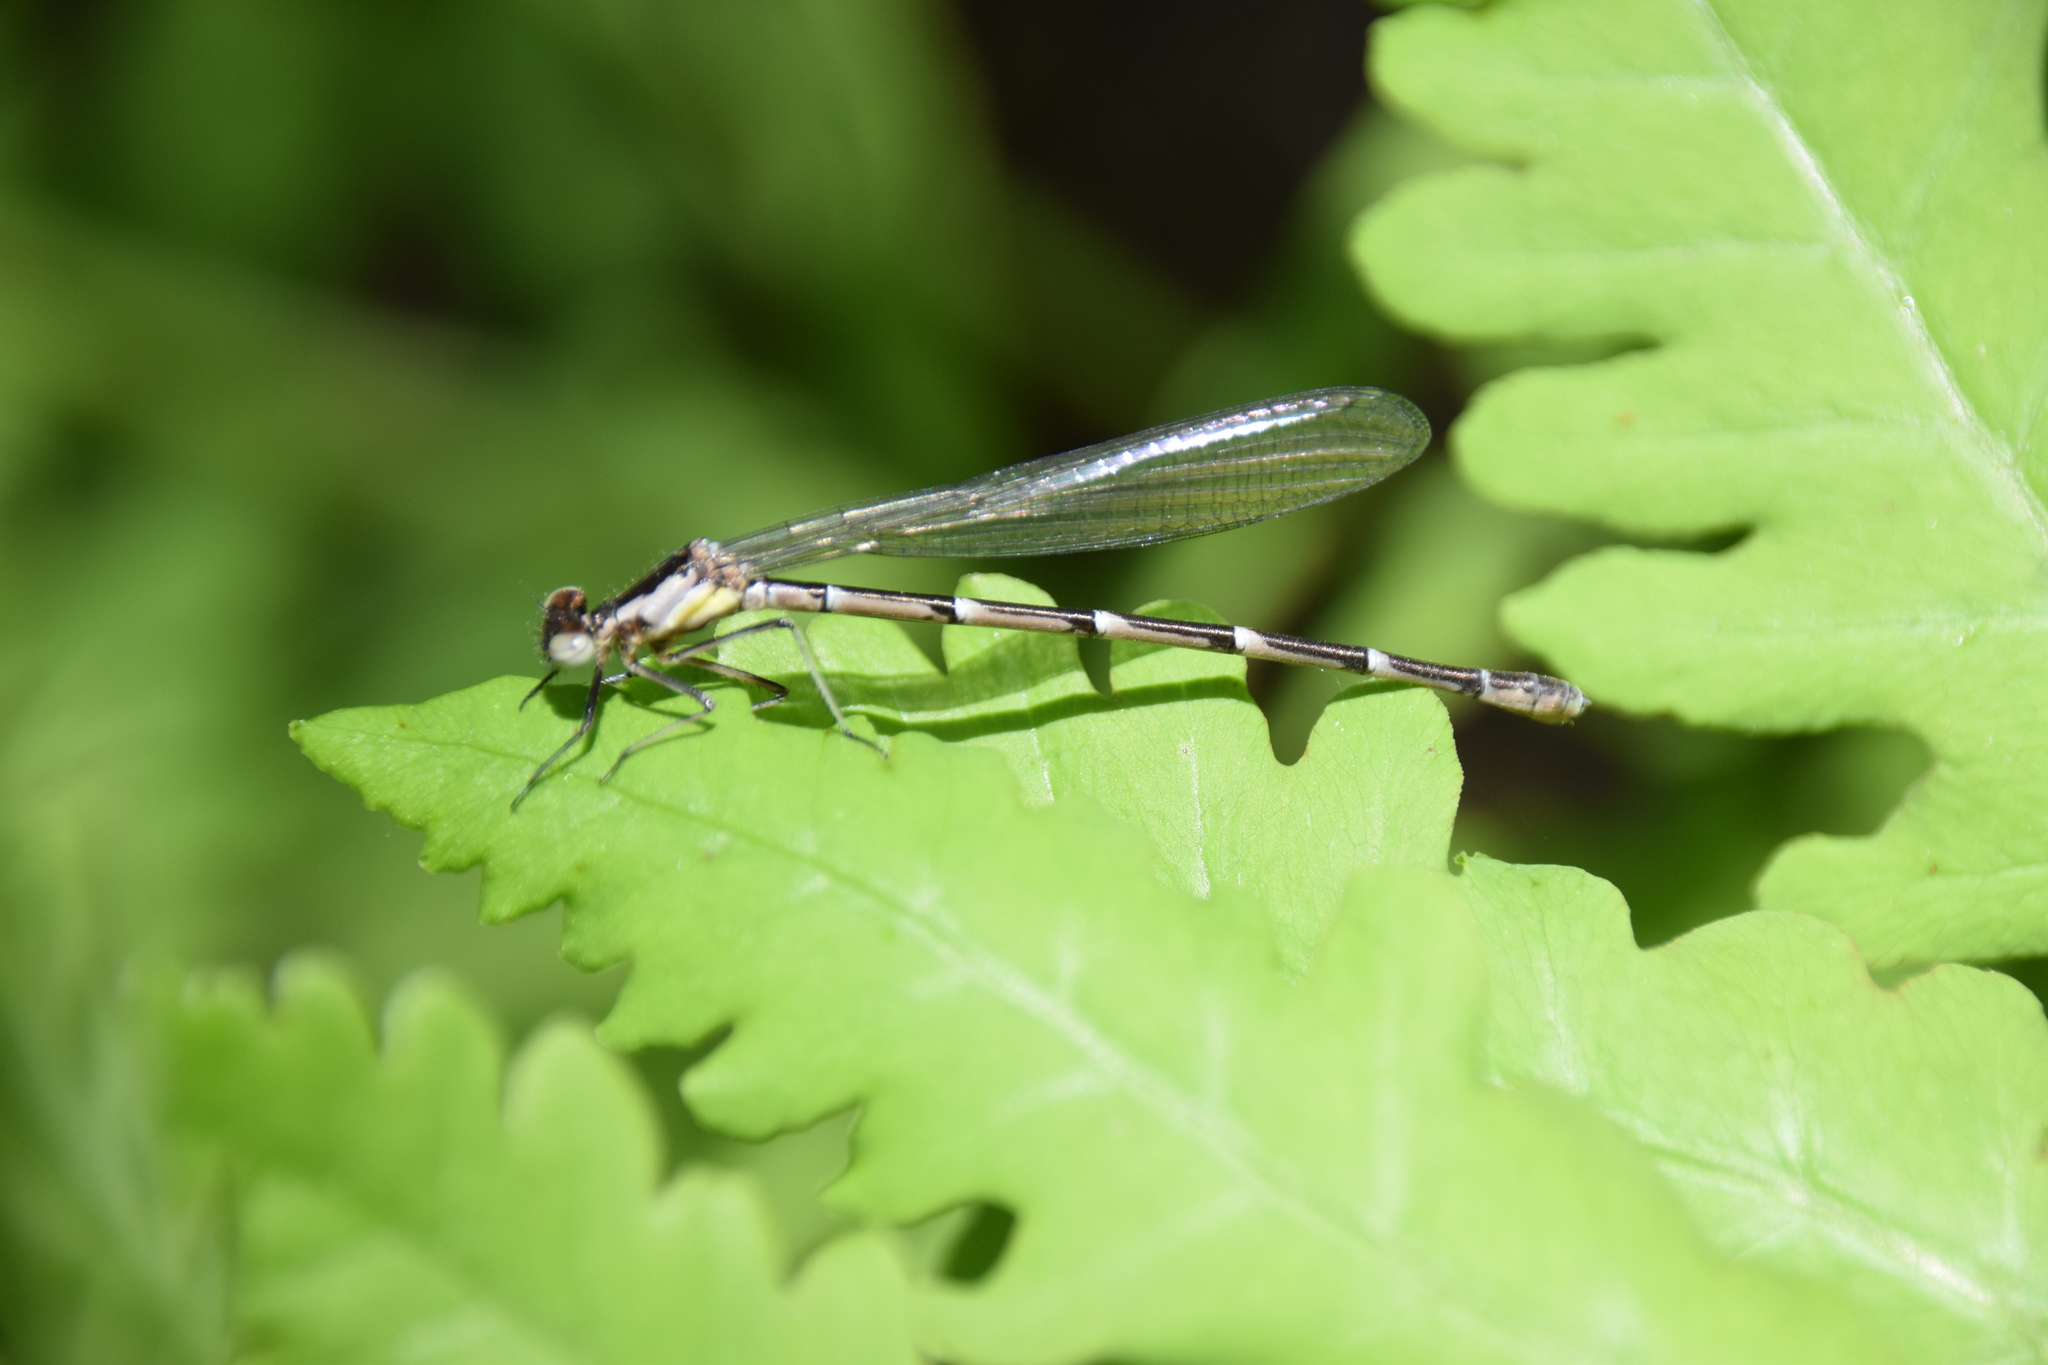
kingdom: Animalia
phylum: Arthropoda
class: Insecta
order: Odonata
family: Coenagrionidae
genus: Chromagrion
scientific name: Chromagrion conditum
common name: Aurora damsel
